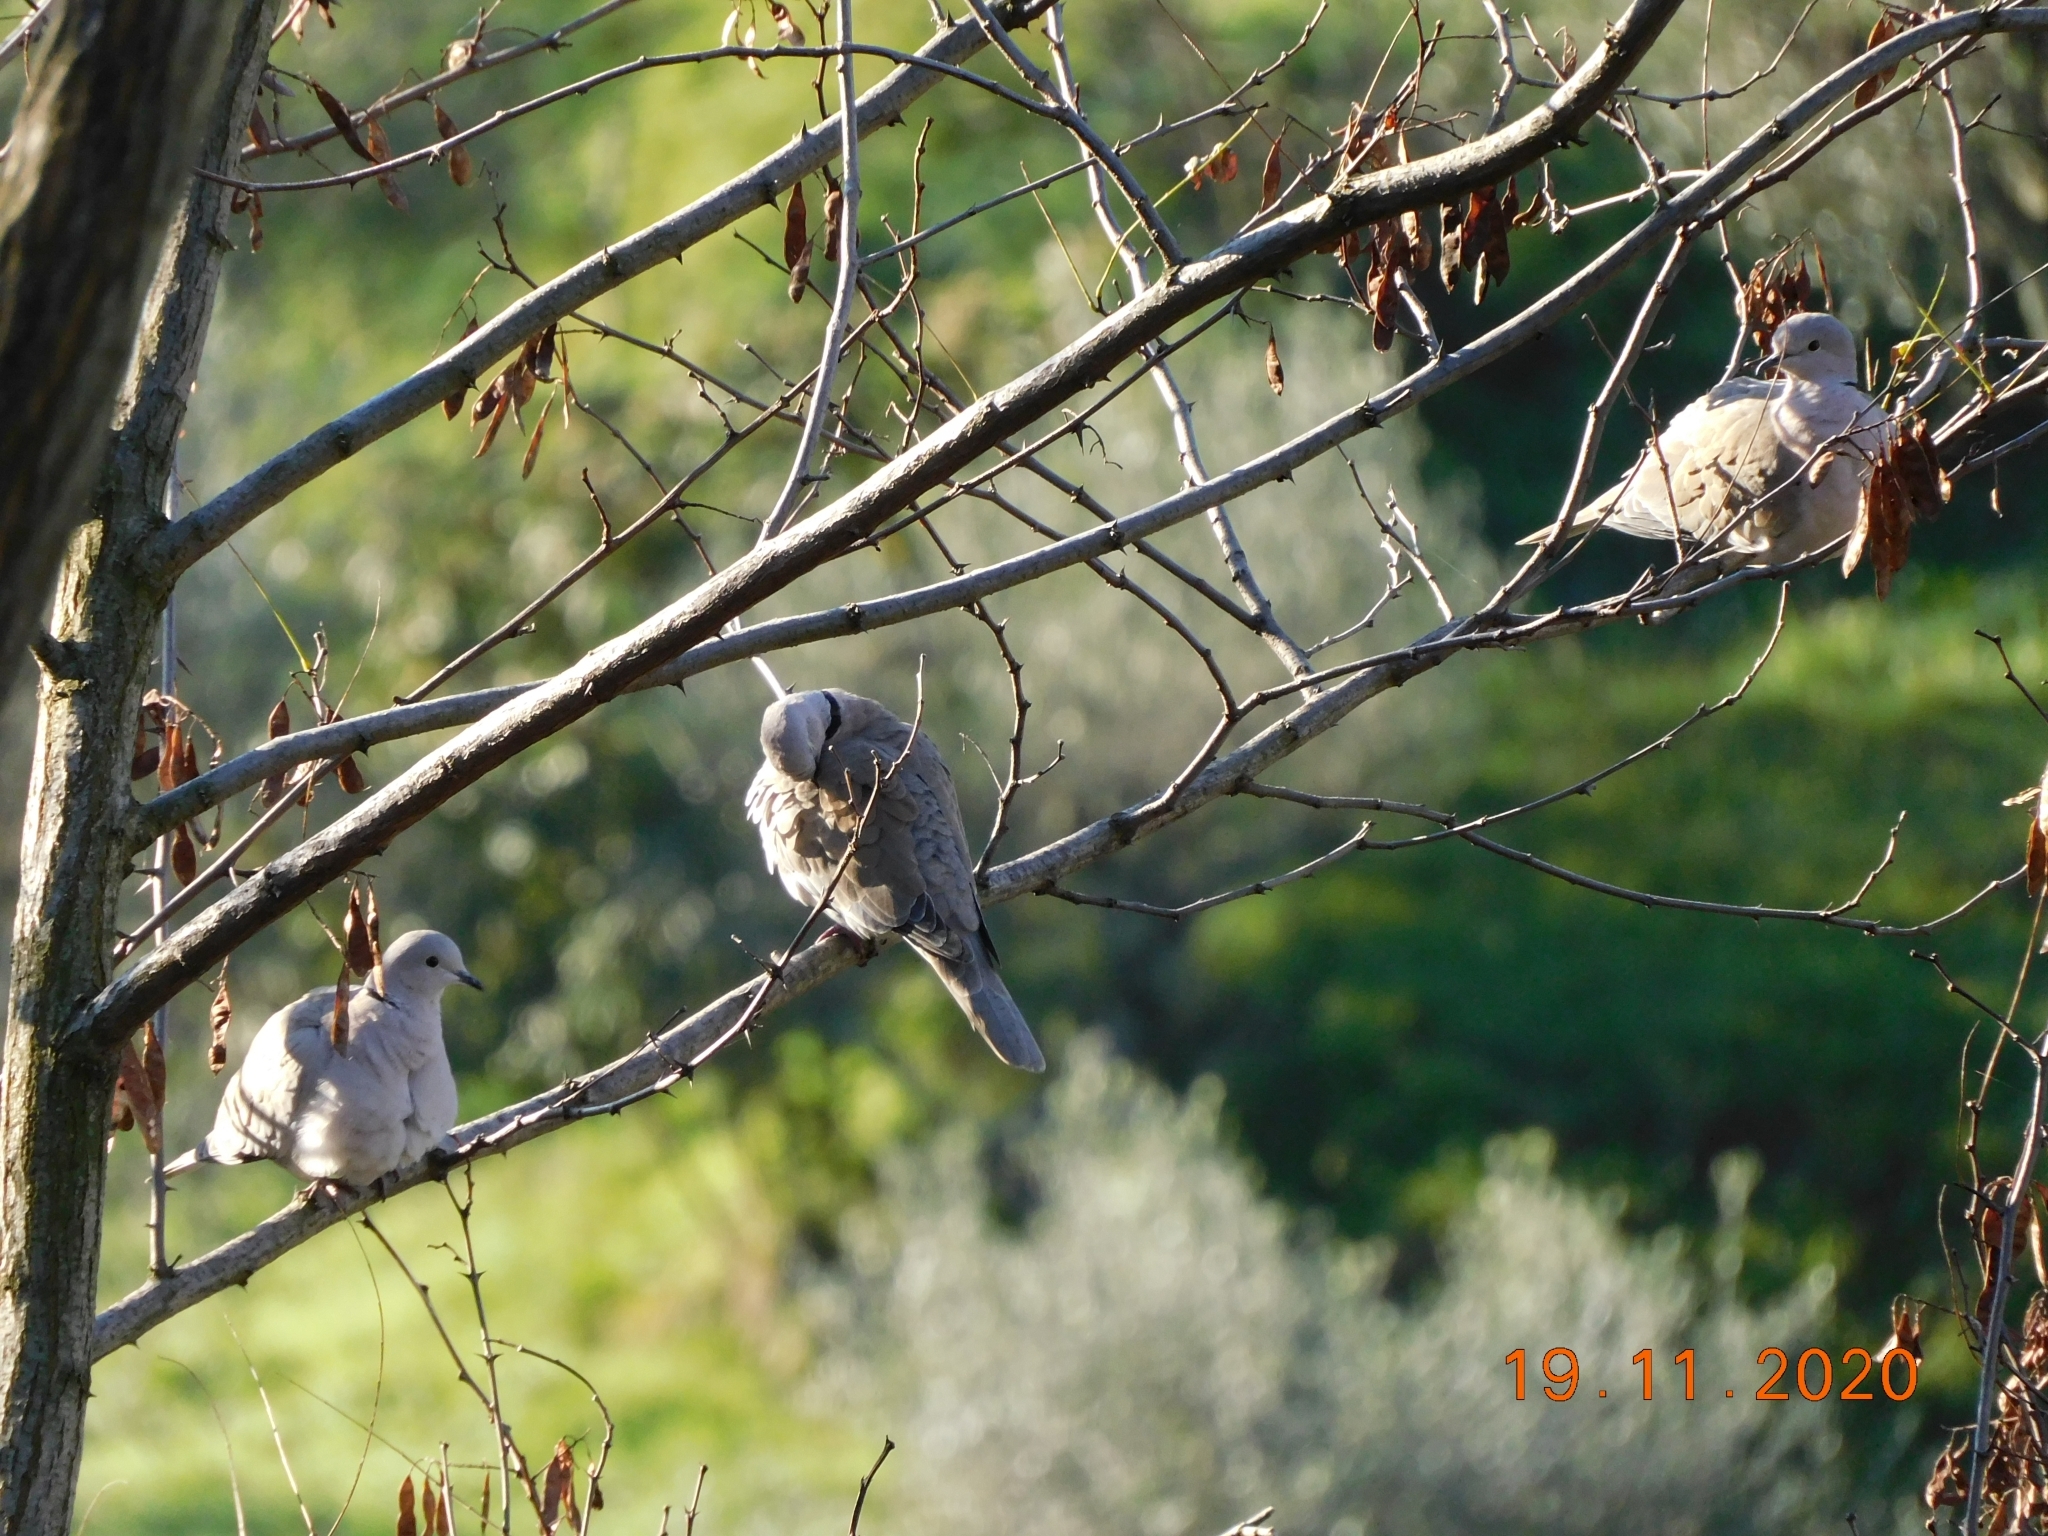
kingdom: Animalia
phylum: Chordata
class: Aves
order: Columbiformes
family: Columbidae
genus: Streptopelia
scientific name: Streptopelia decaocto
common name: Eurasian collared dove
